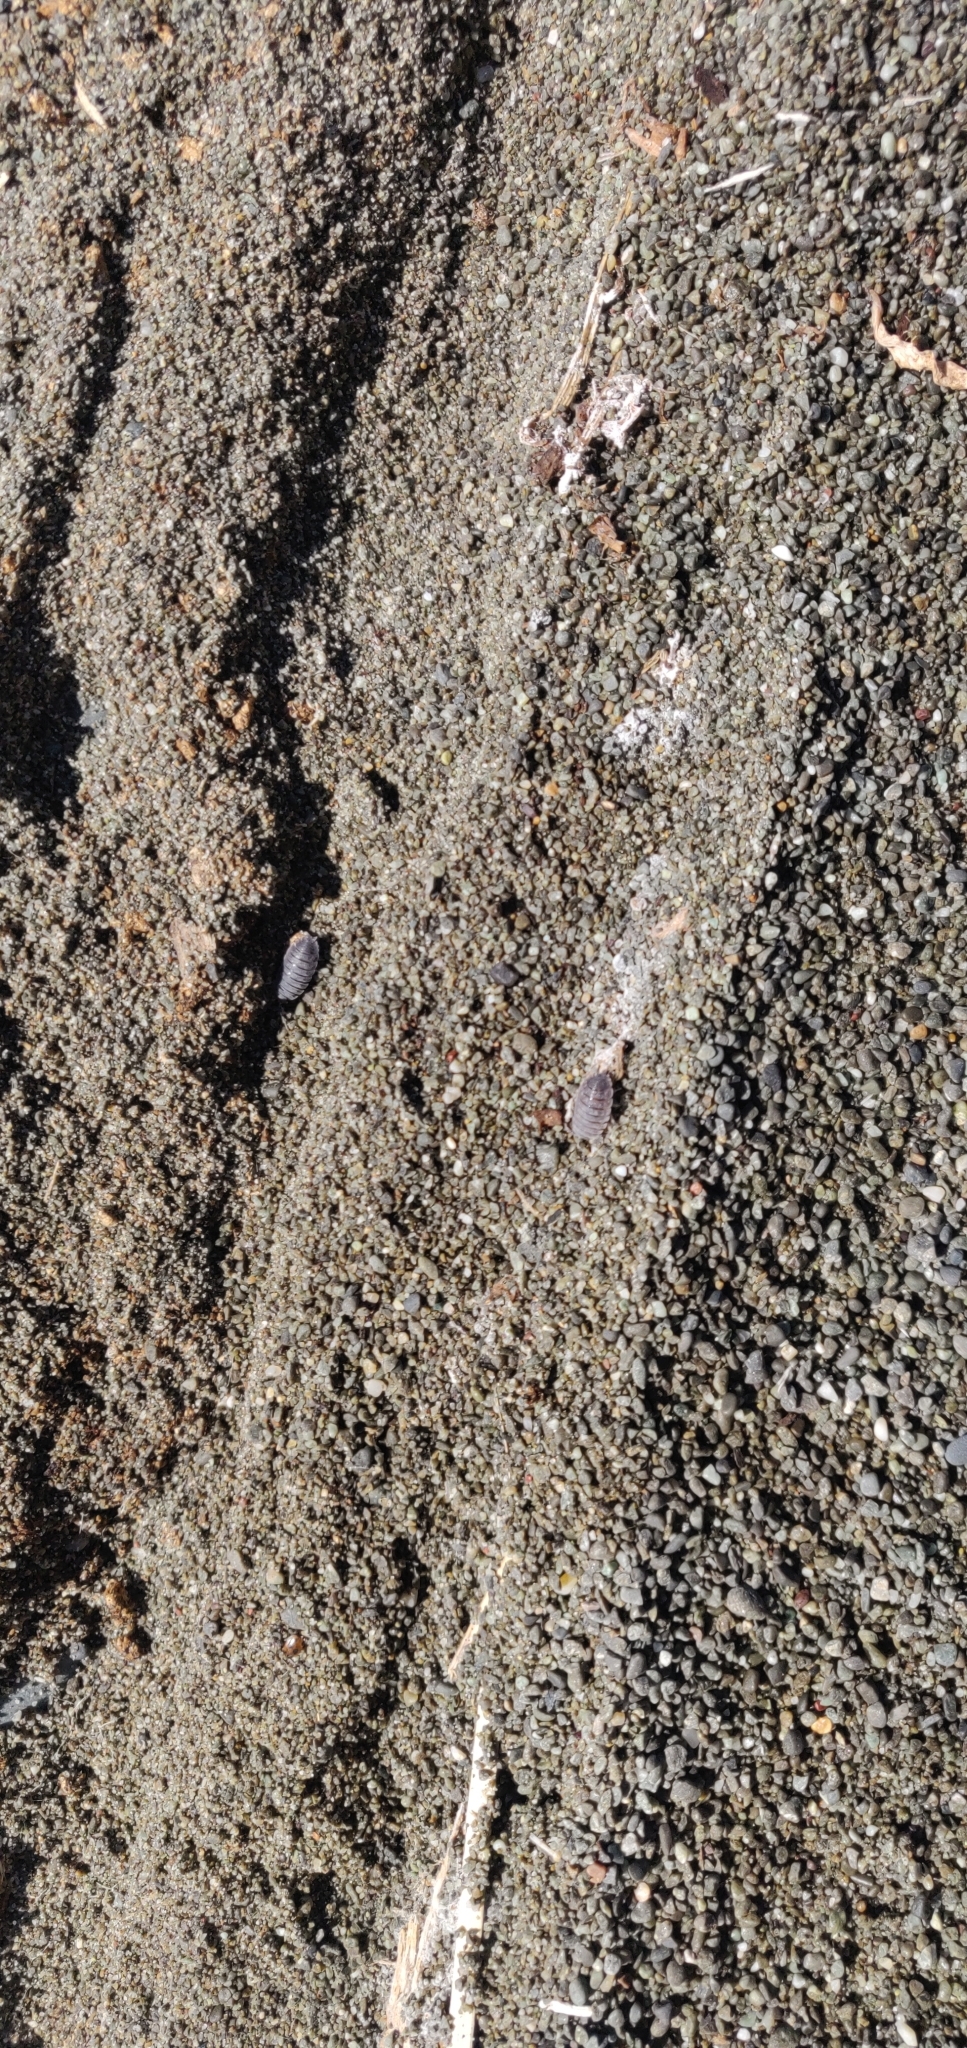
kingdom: Animalia
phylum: Arthropoda
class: Malacostraca
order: Isopoda
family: Porcellionidae
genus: Porcellio
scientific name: Porcellio scaber
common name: Common rough woodlouse
